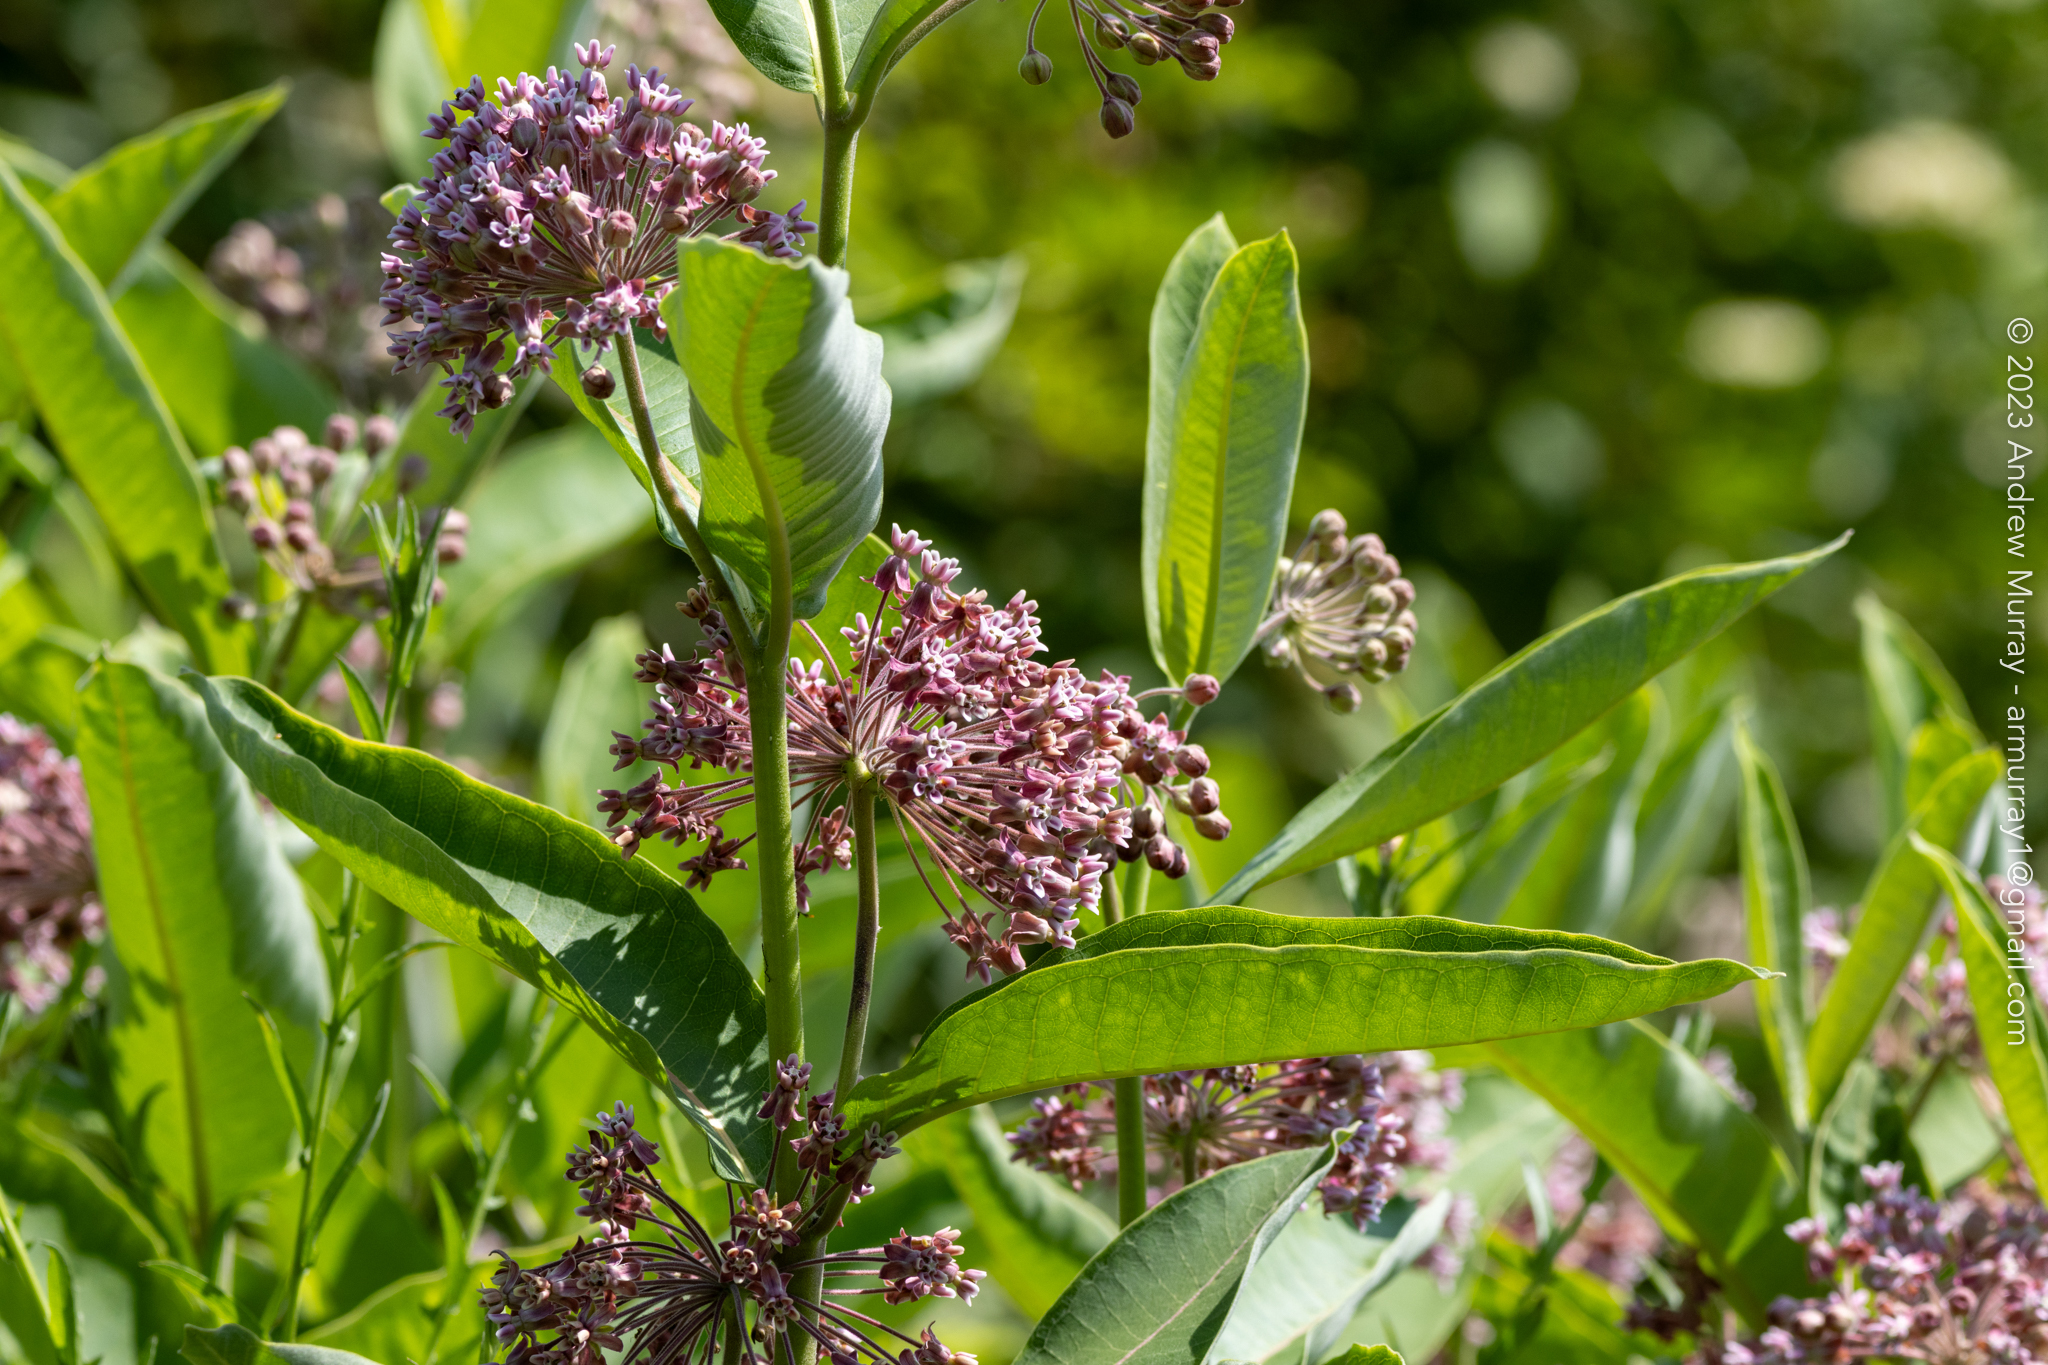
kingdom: Plantae
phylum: Tracheophyta
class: Magnoliopsida
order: Gentianales
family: Apocynaceae
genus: Asclepias
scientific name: Asclepias syriaca
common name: Common milkweed
